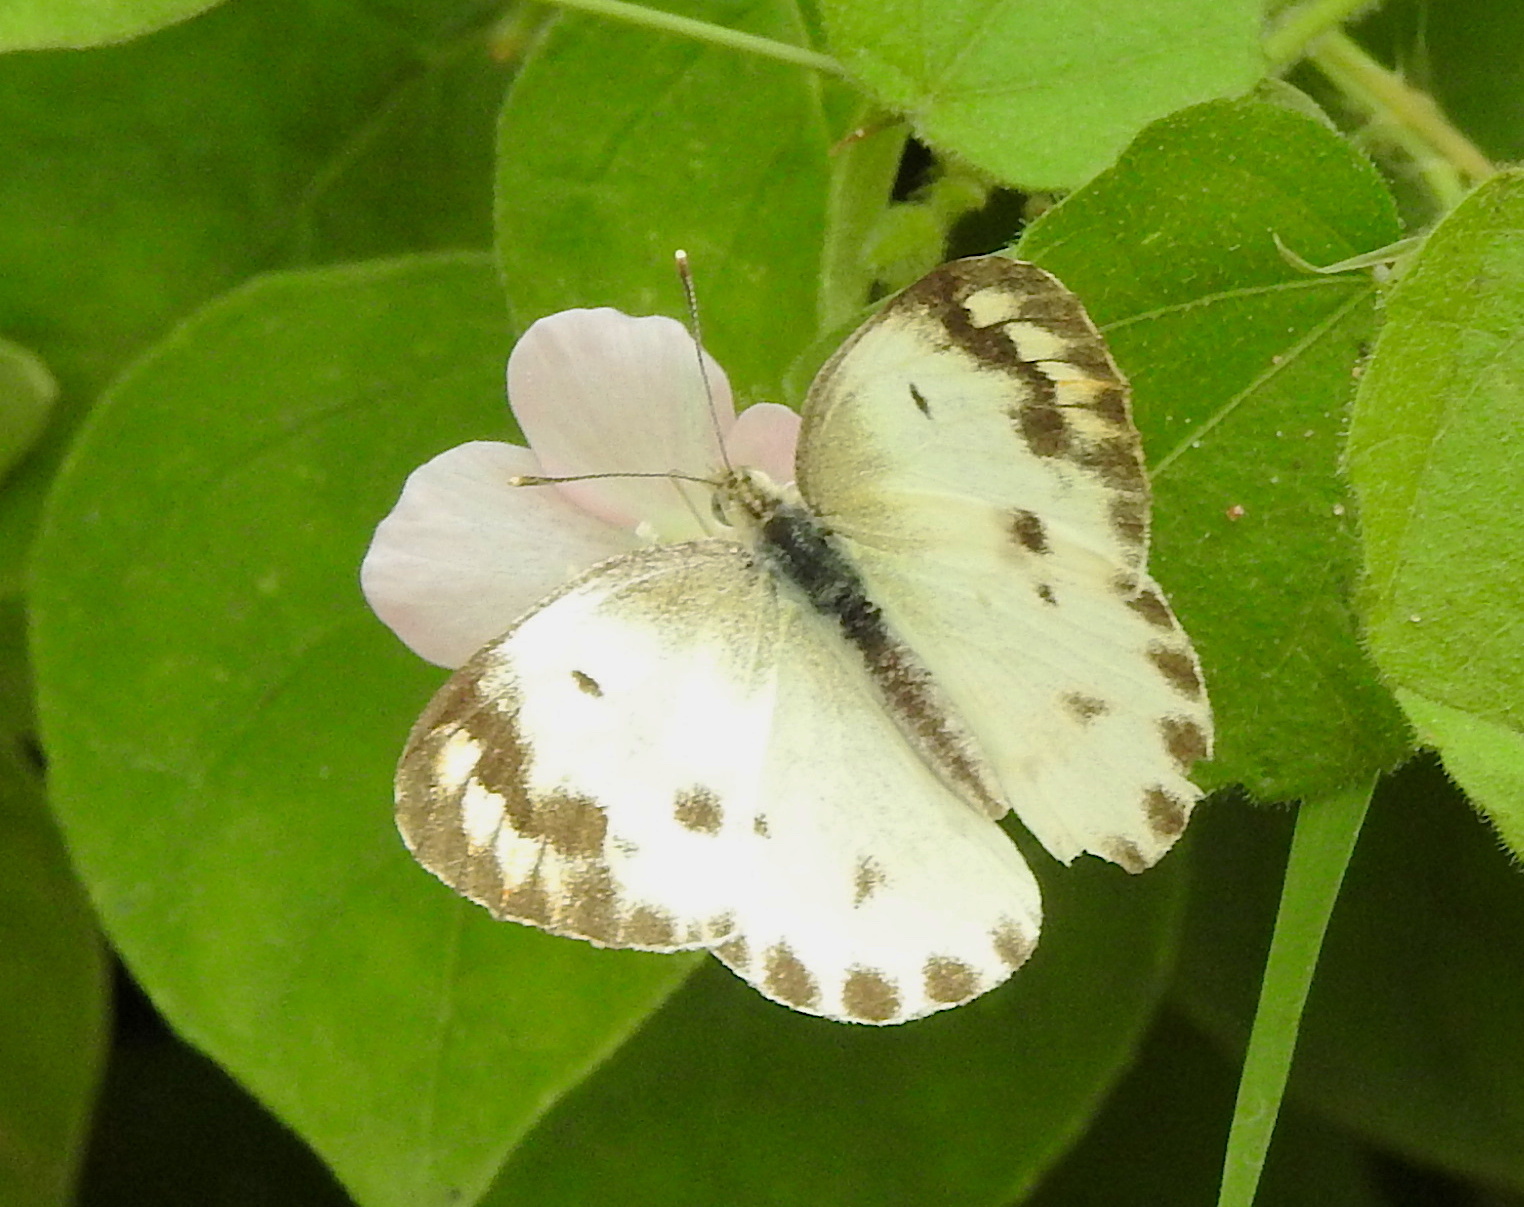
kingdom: Animalia
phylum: Arthropoda
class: Insecta
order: Lepidoptera
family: Pieridae
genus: Colotis
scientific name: Colotis aurora
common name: Plain orange-tip
